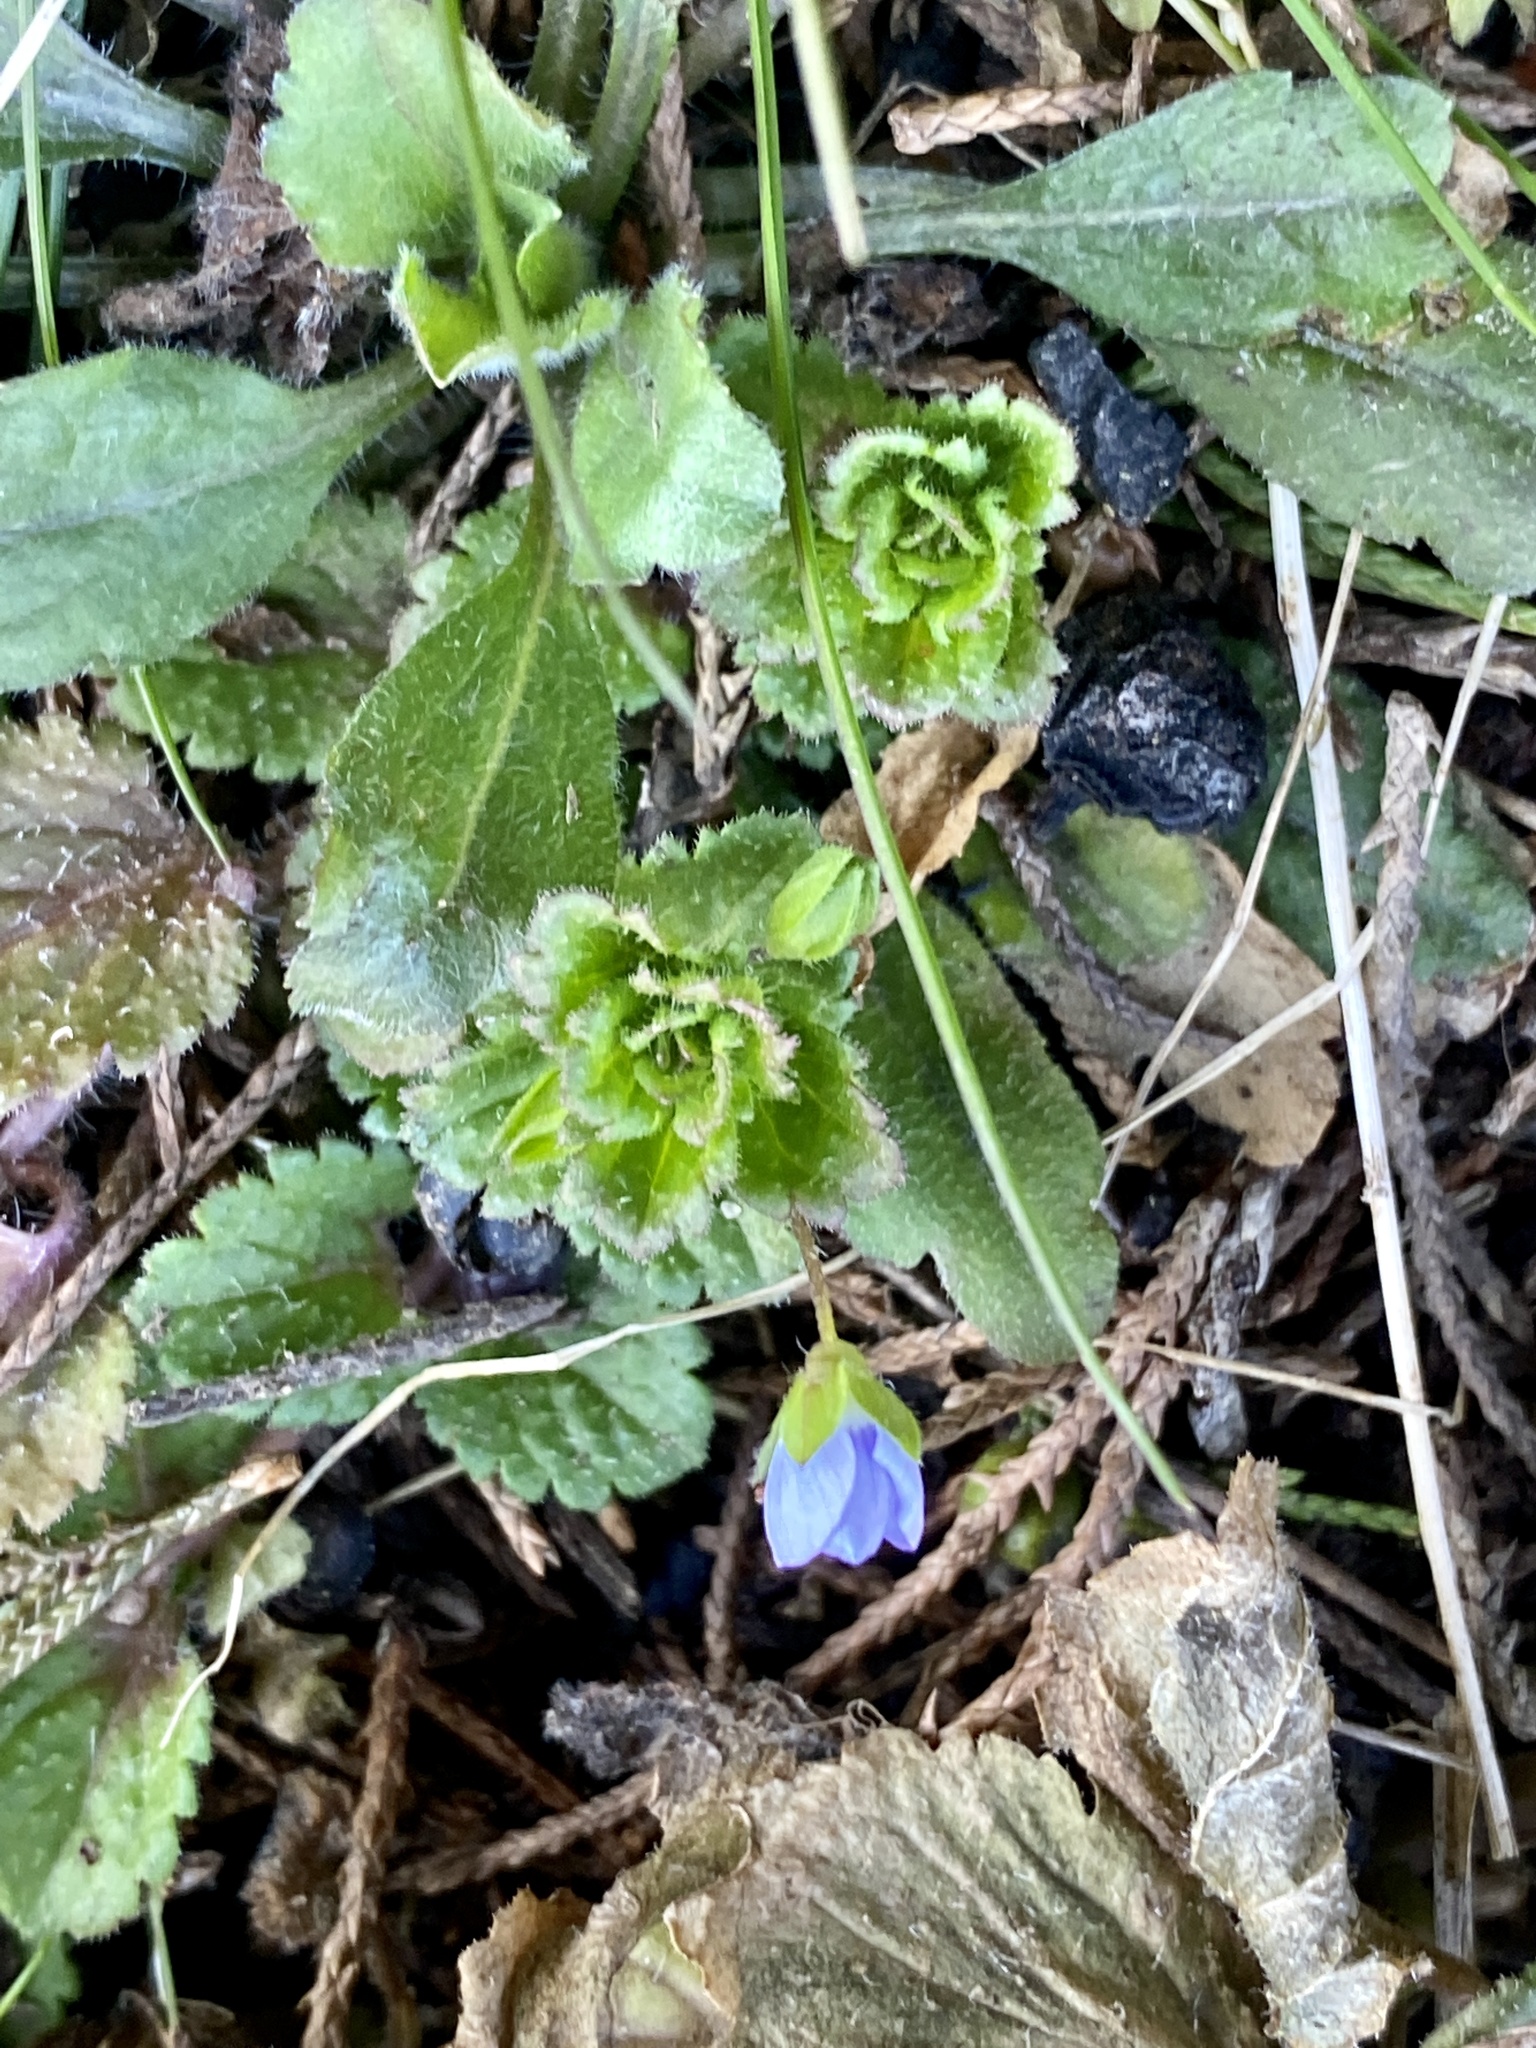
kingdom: Plantae
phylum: Tracheophyta
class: Magnoliopsida
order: Lamiales
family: Plantaginaceae
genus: Veronica
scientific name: Veronica persica
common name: Common field-speedwell
